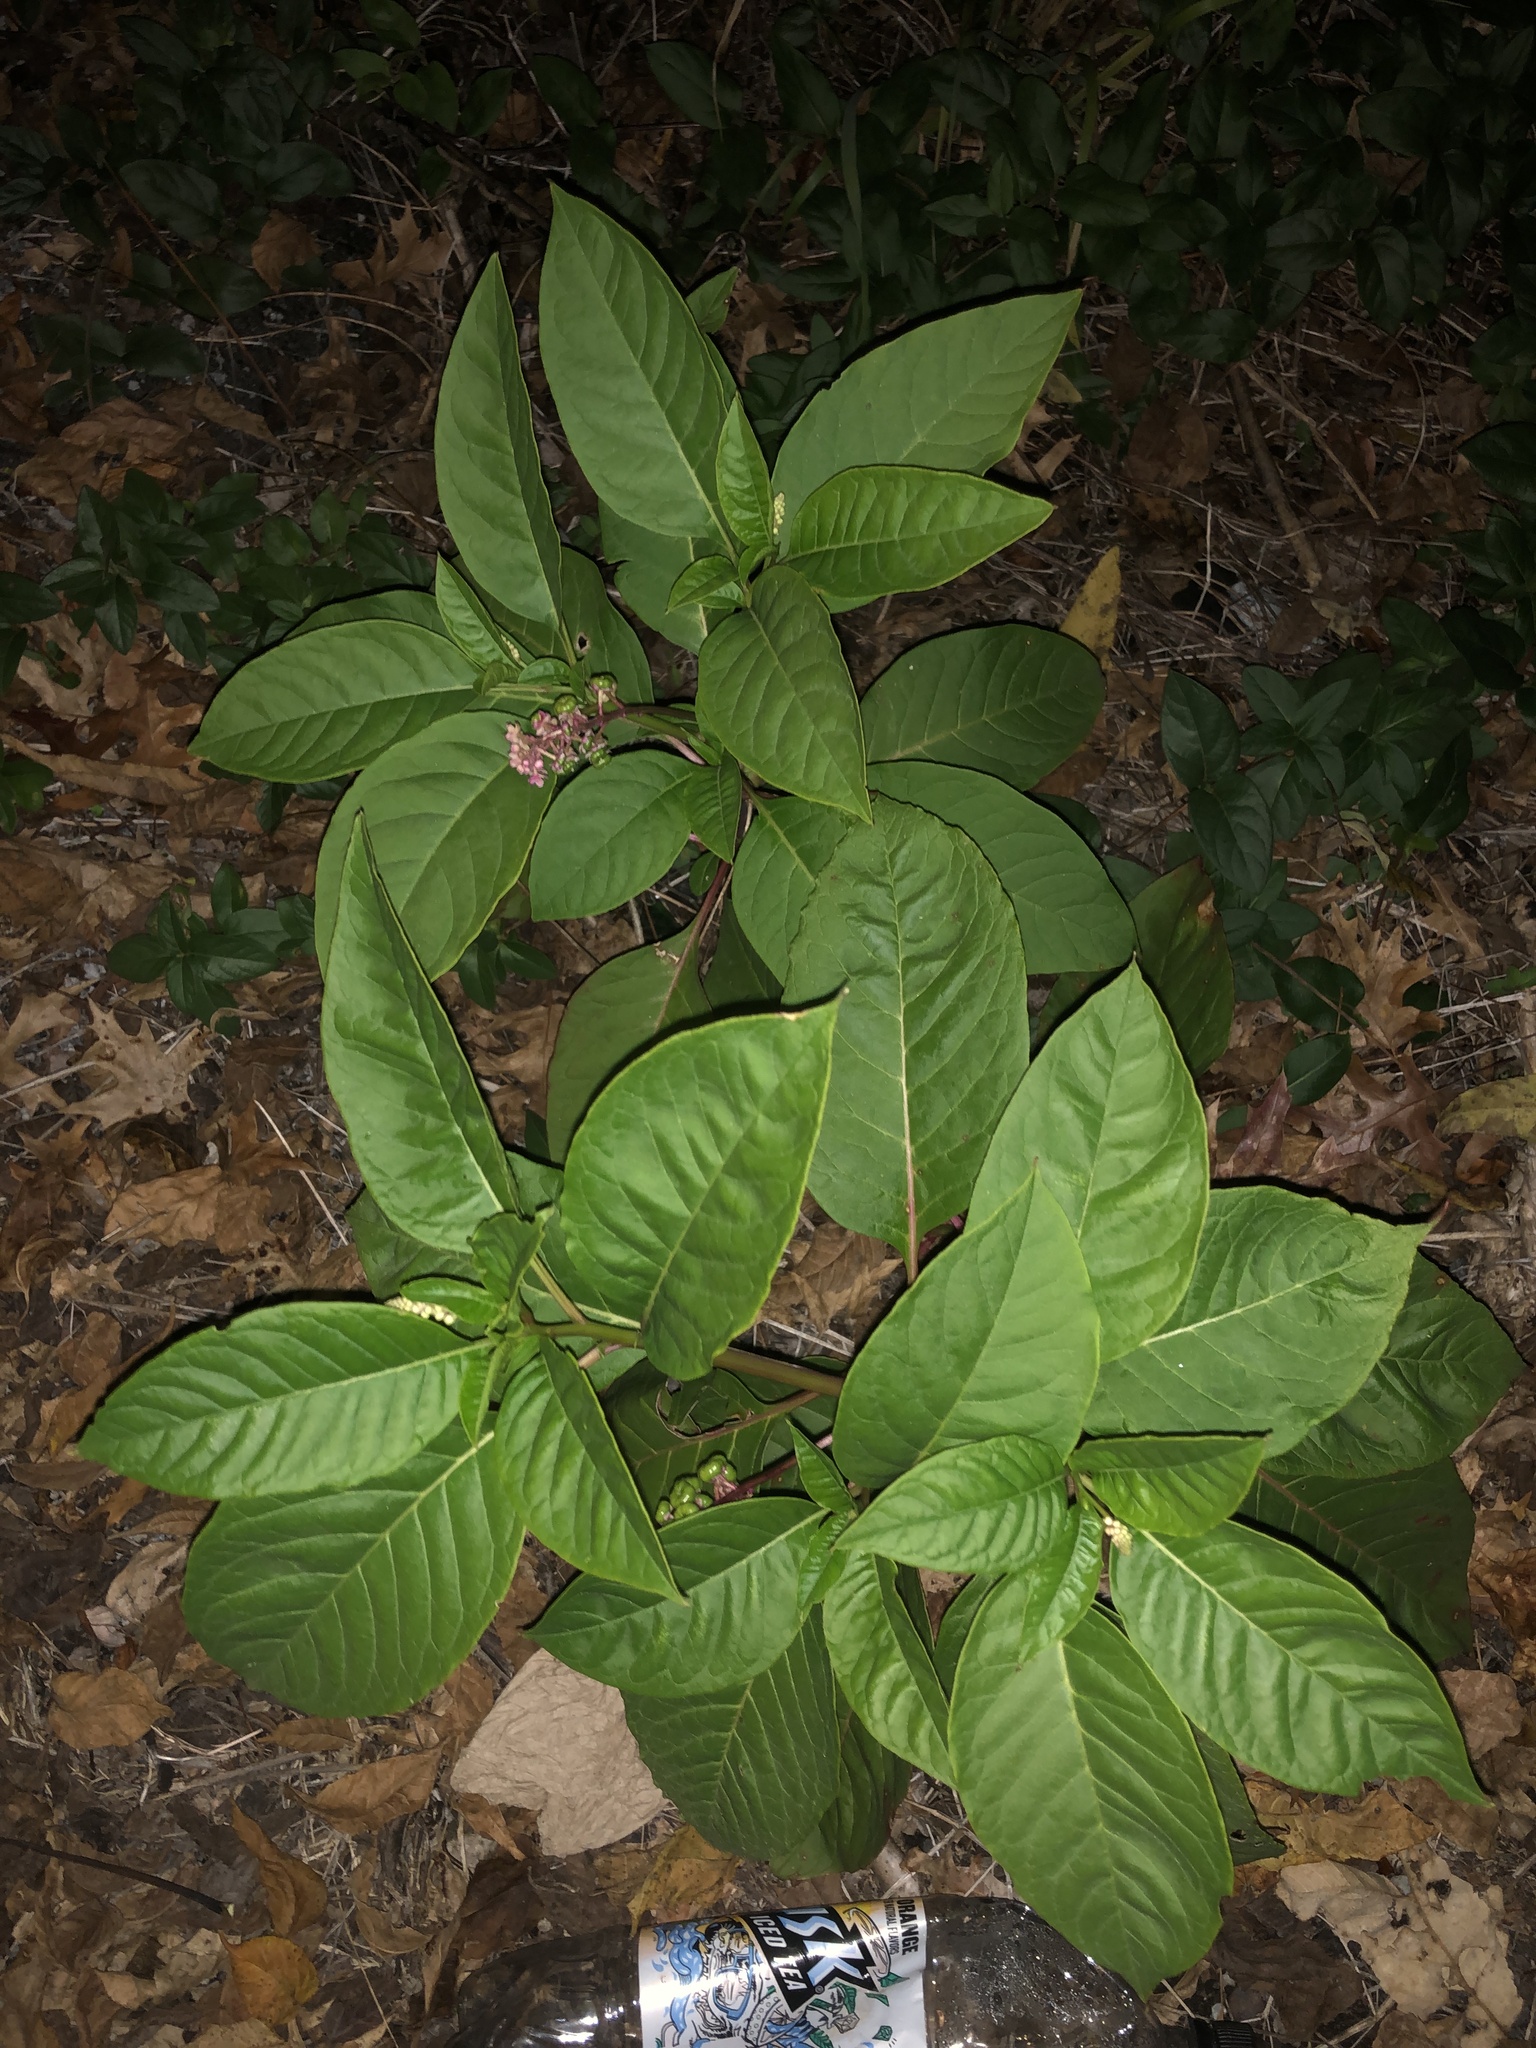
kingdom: Plantae
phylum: Tracheophyta
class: Magnoliopsida
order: Caryophyllales
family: Phytolaccaceae
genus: Phytolacca
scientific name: Phytolacca americana
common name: American pokeweed
